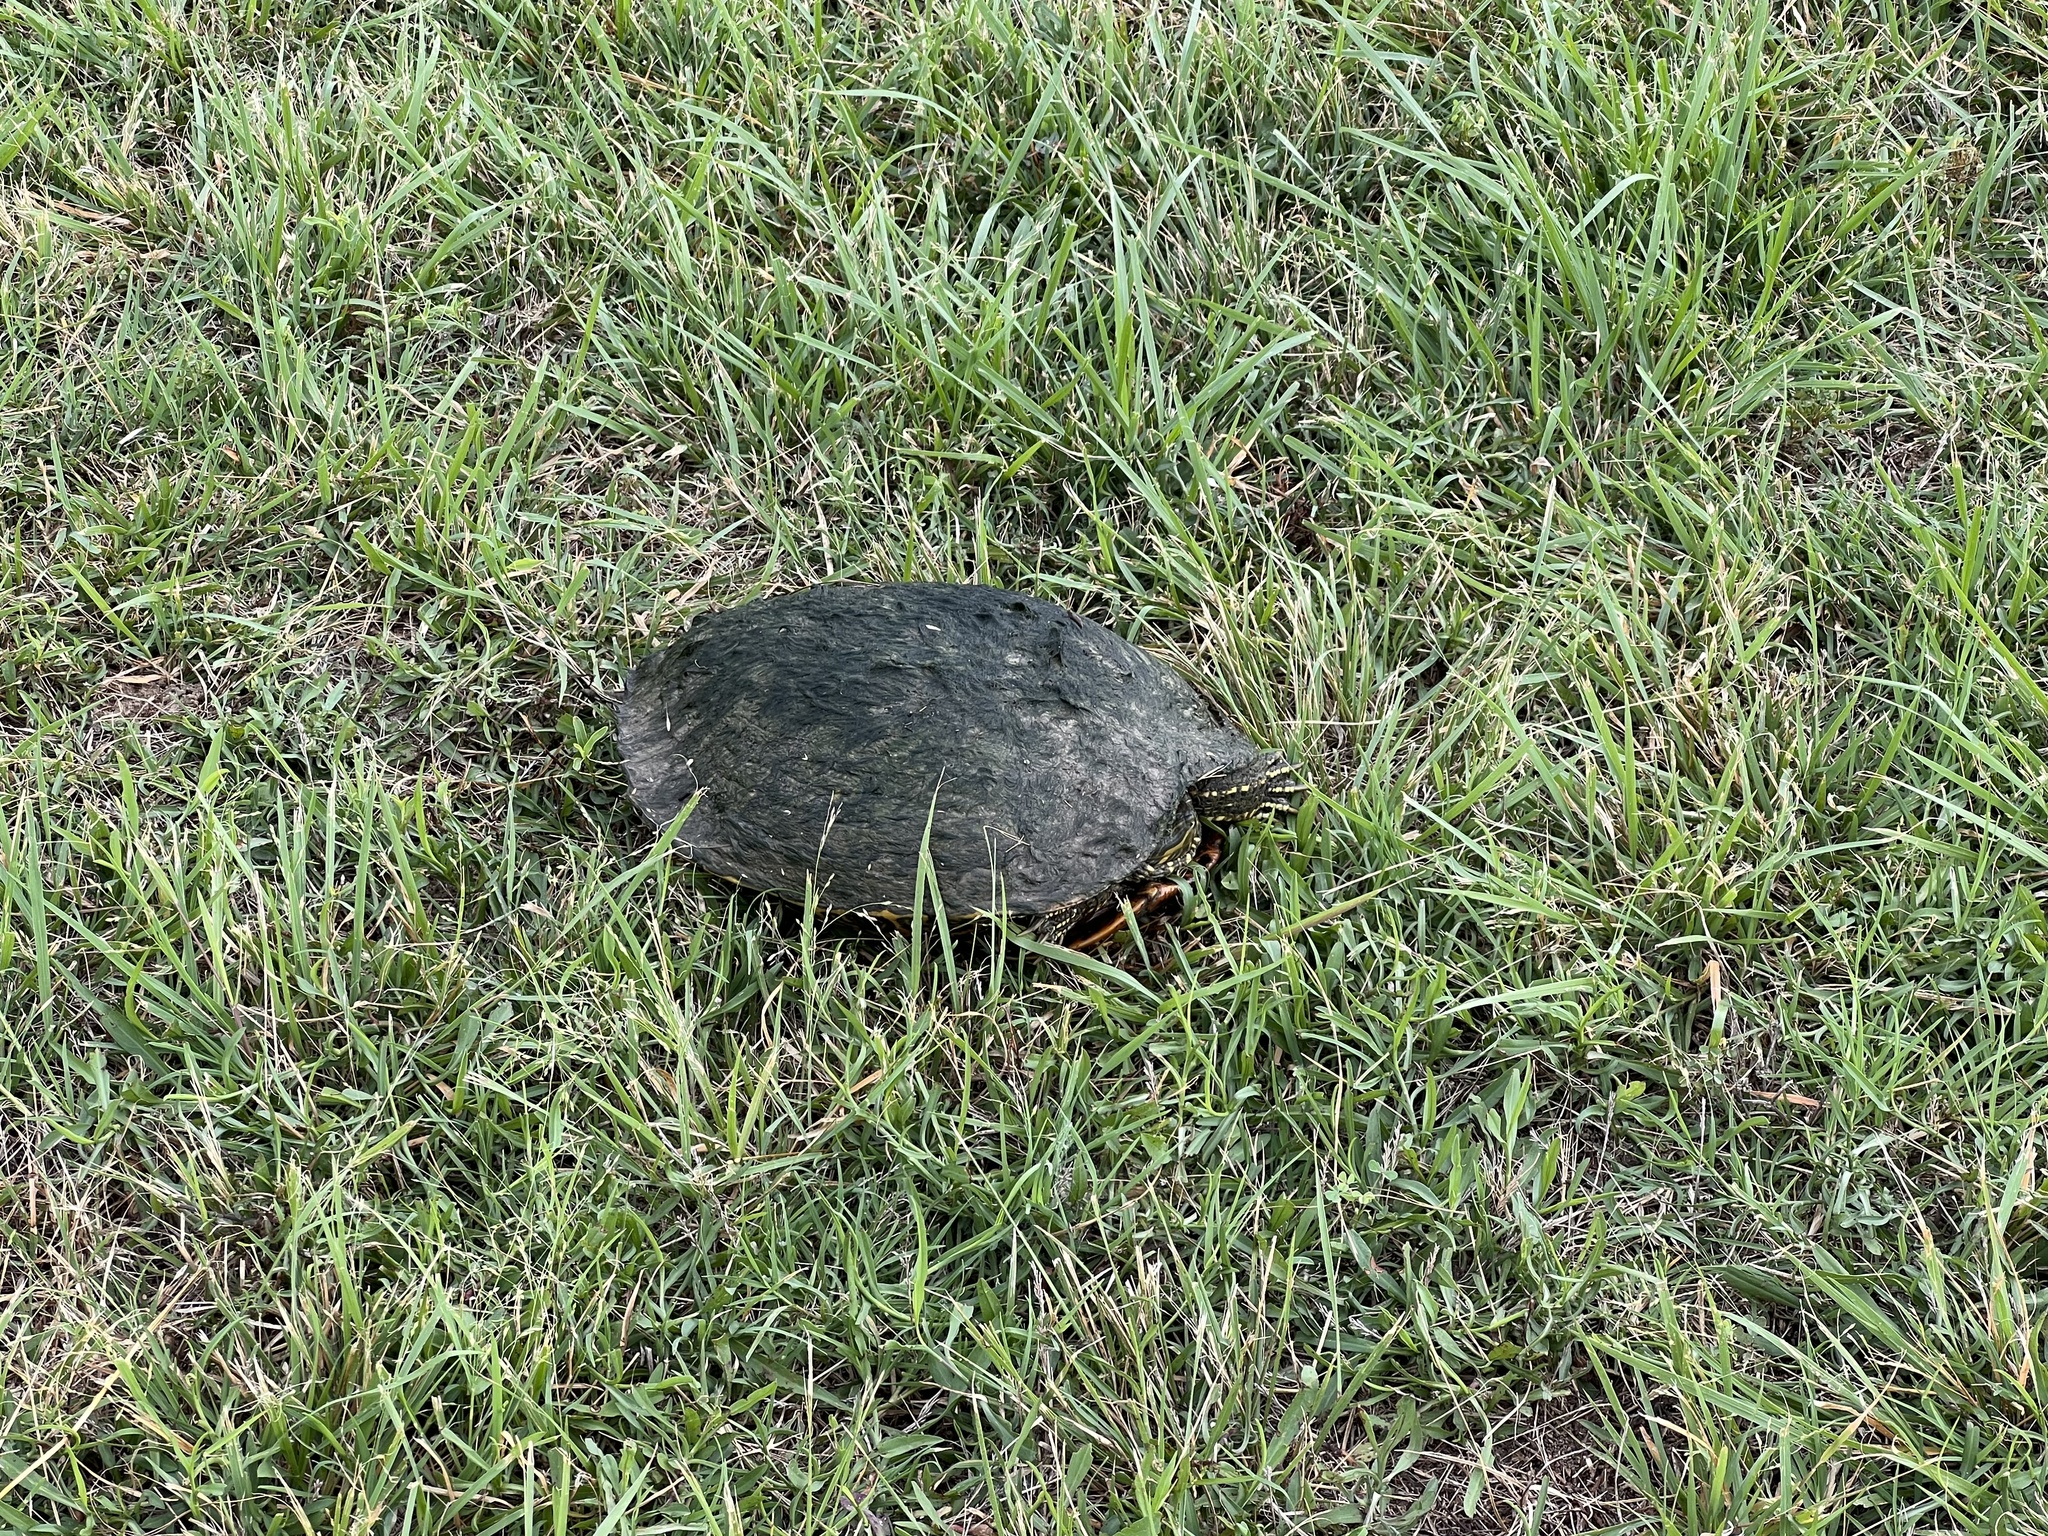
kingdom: Animalia
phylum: Chordata
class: Testudines
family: Emydidae
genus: Trachemys
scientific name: Trachemys scripta
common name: Slider
